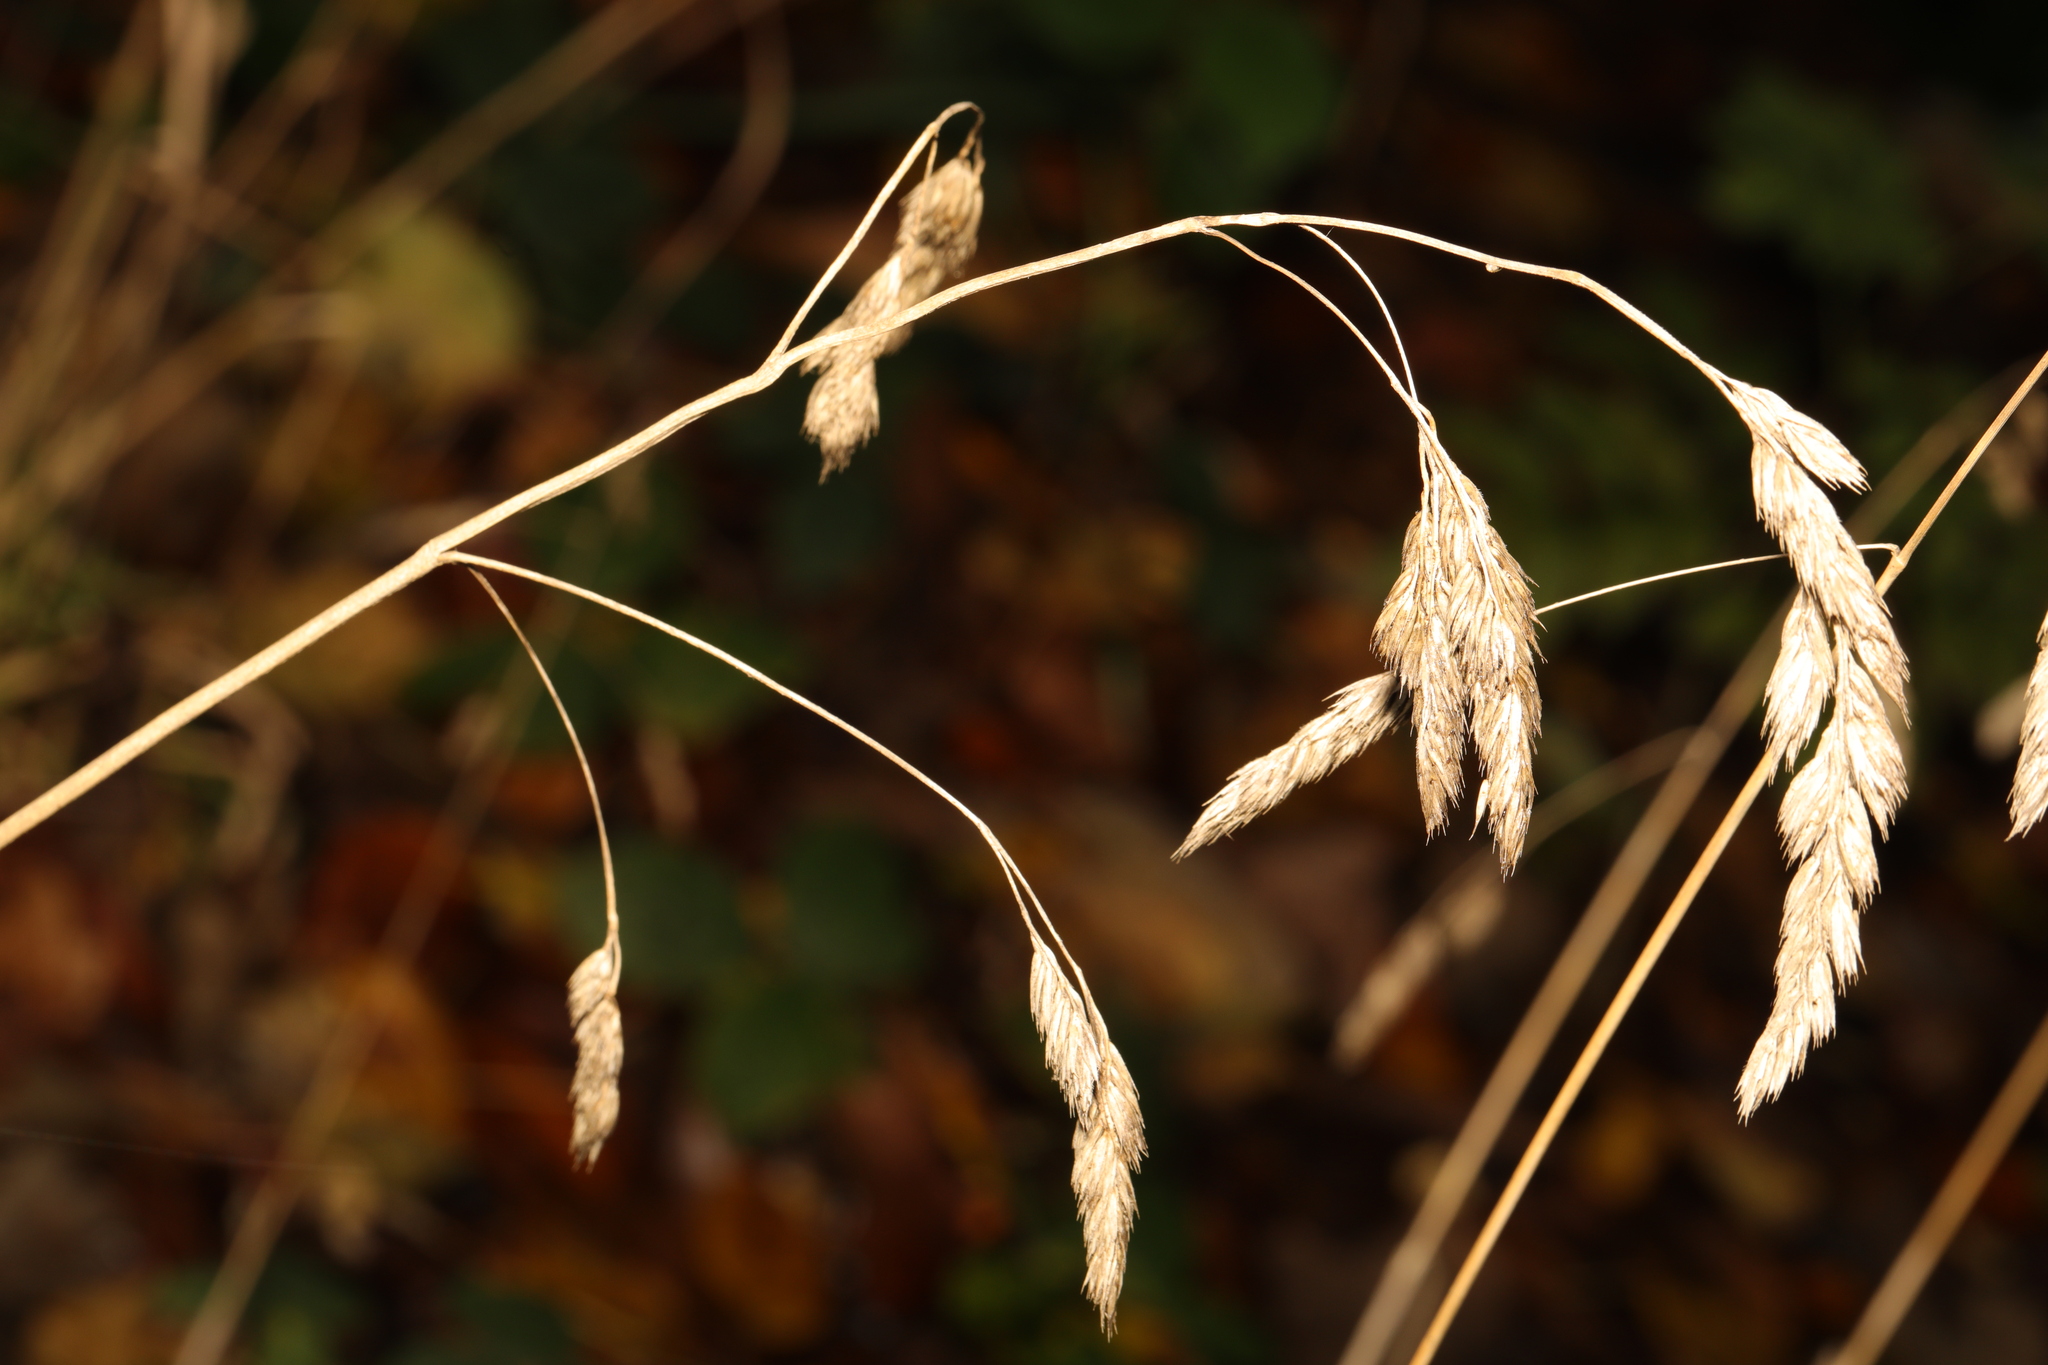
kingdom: Plantae
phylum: Tracheophyta
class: Liliopsida
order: Poales
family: Poaceae
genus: Dactylis
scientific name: Dactylis glomerata
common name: Orchardgrass
